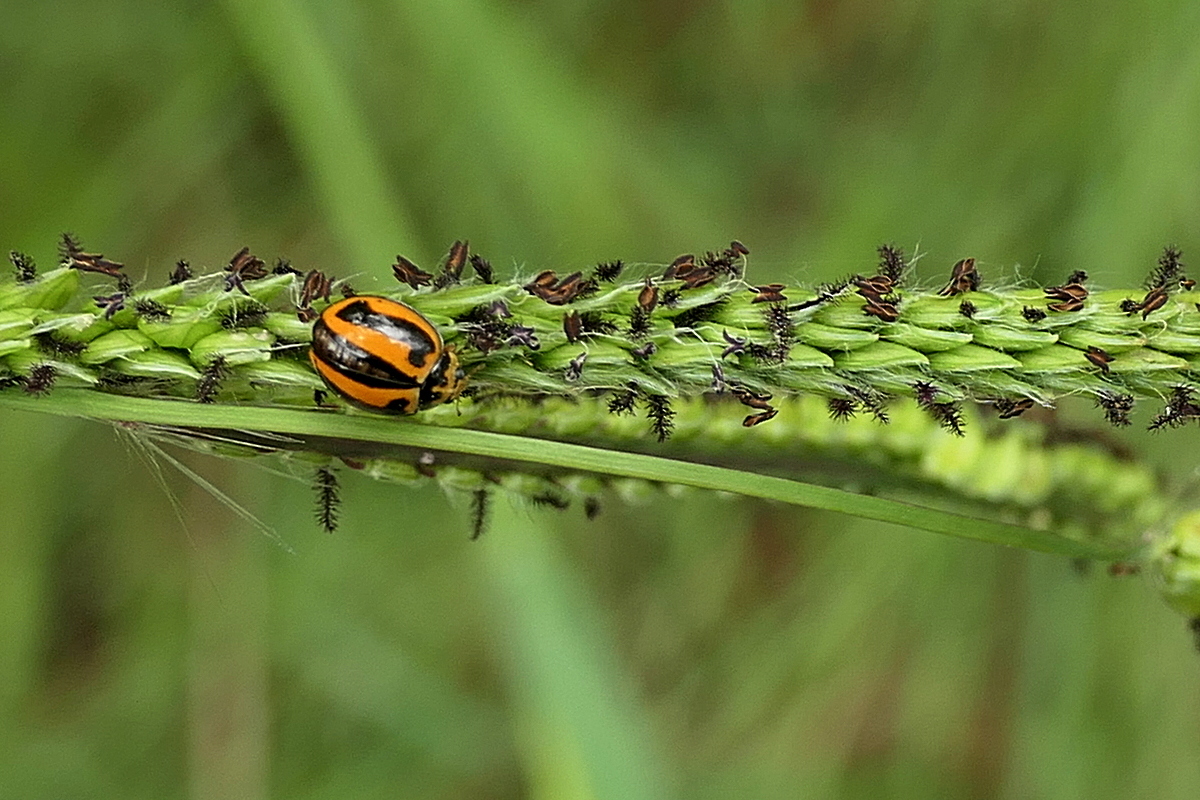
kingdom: Animalia
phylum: Arthropoda
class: Insecta
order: Coleoptera
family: Coccinellidae
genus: Micraspis
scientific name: Micraspis frenata
